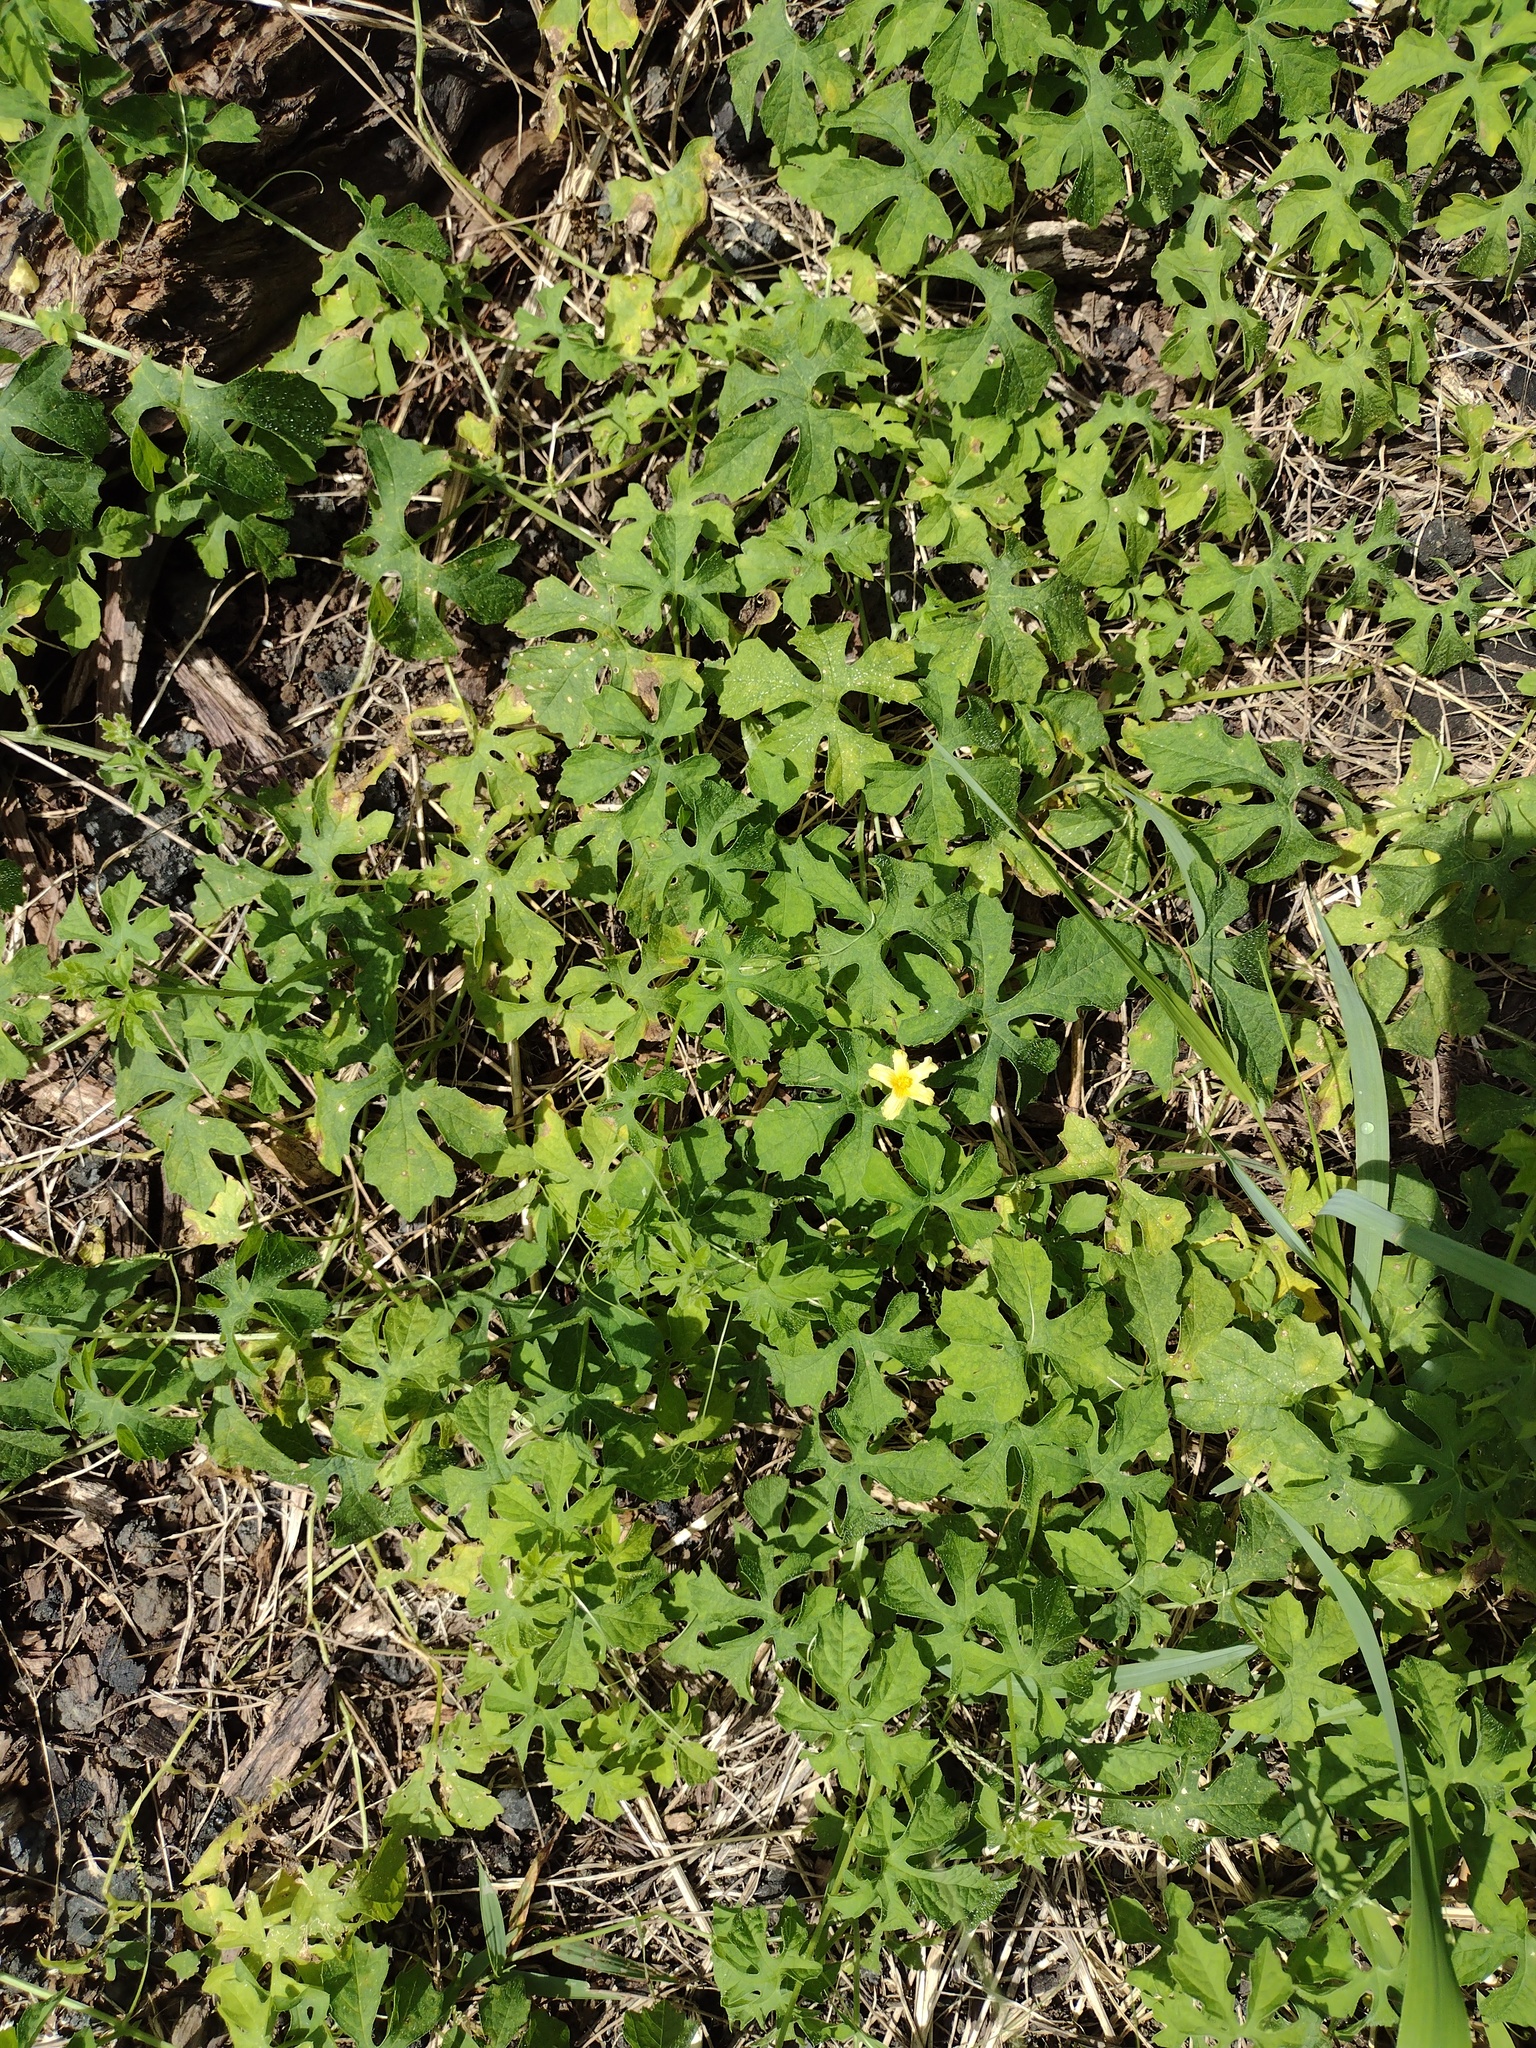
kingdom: Plantae
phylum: Tracheophyta
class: Magnoliopsida
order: Cucurbitales
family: Cucurbitaceae
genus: Momordica
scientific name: Momordica charantia
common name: Balsampear
